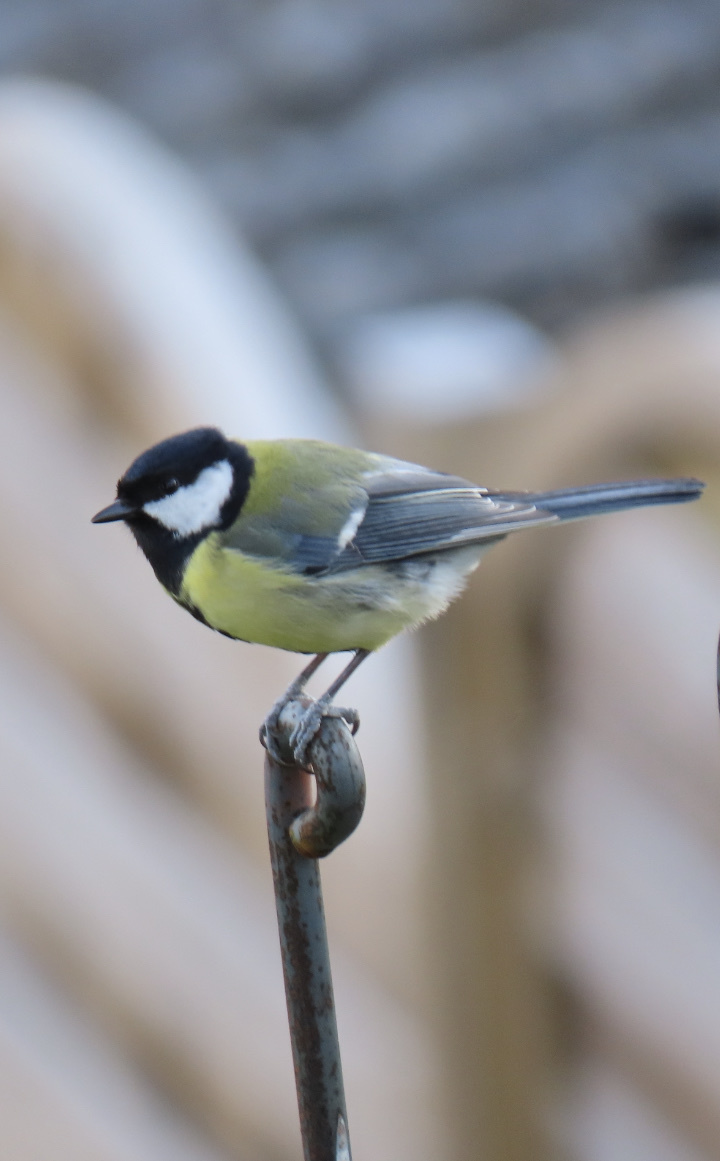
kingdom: Animalia
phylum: Chordata
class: Aves
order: Passeriformes
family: Paridae
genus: Parus
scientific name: Parus major
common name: Great tit
